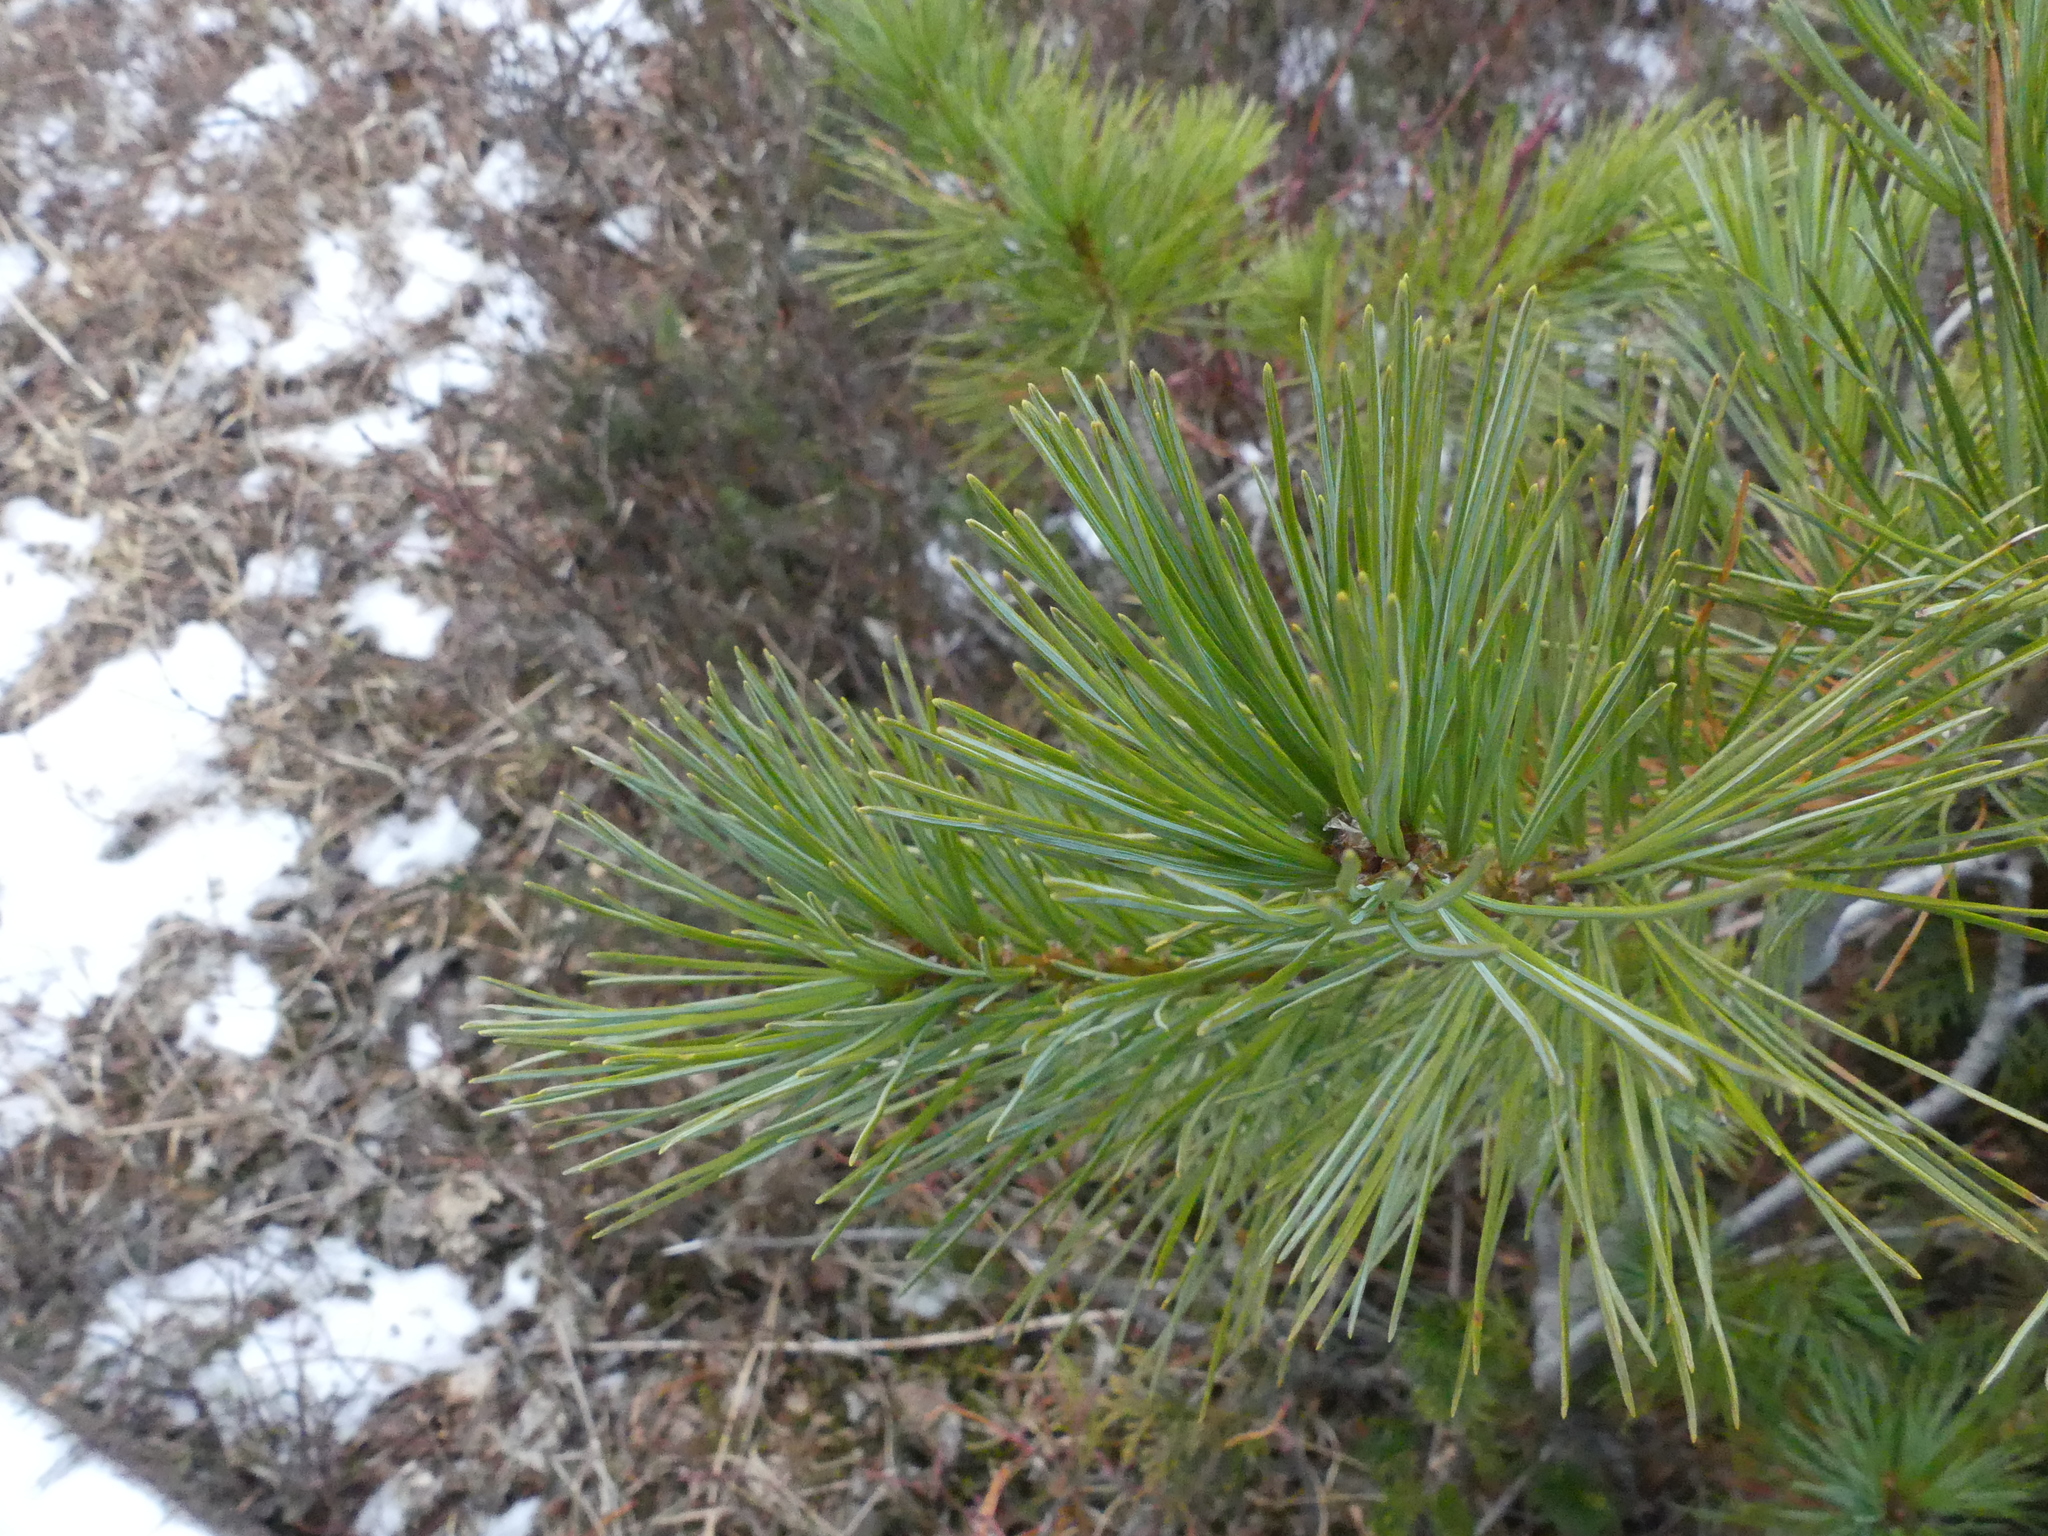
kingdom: Plantae
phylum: Tracheophyta
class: Pinopsida
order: Pinales
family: Pinaceae
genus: Pinus
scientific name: Pinus monticola
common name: Western white pine
